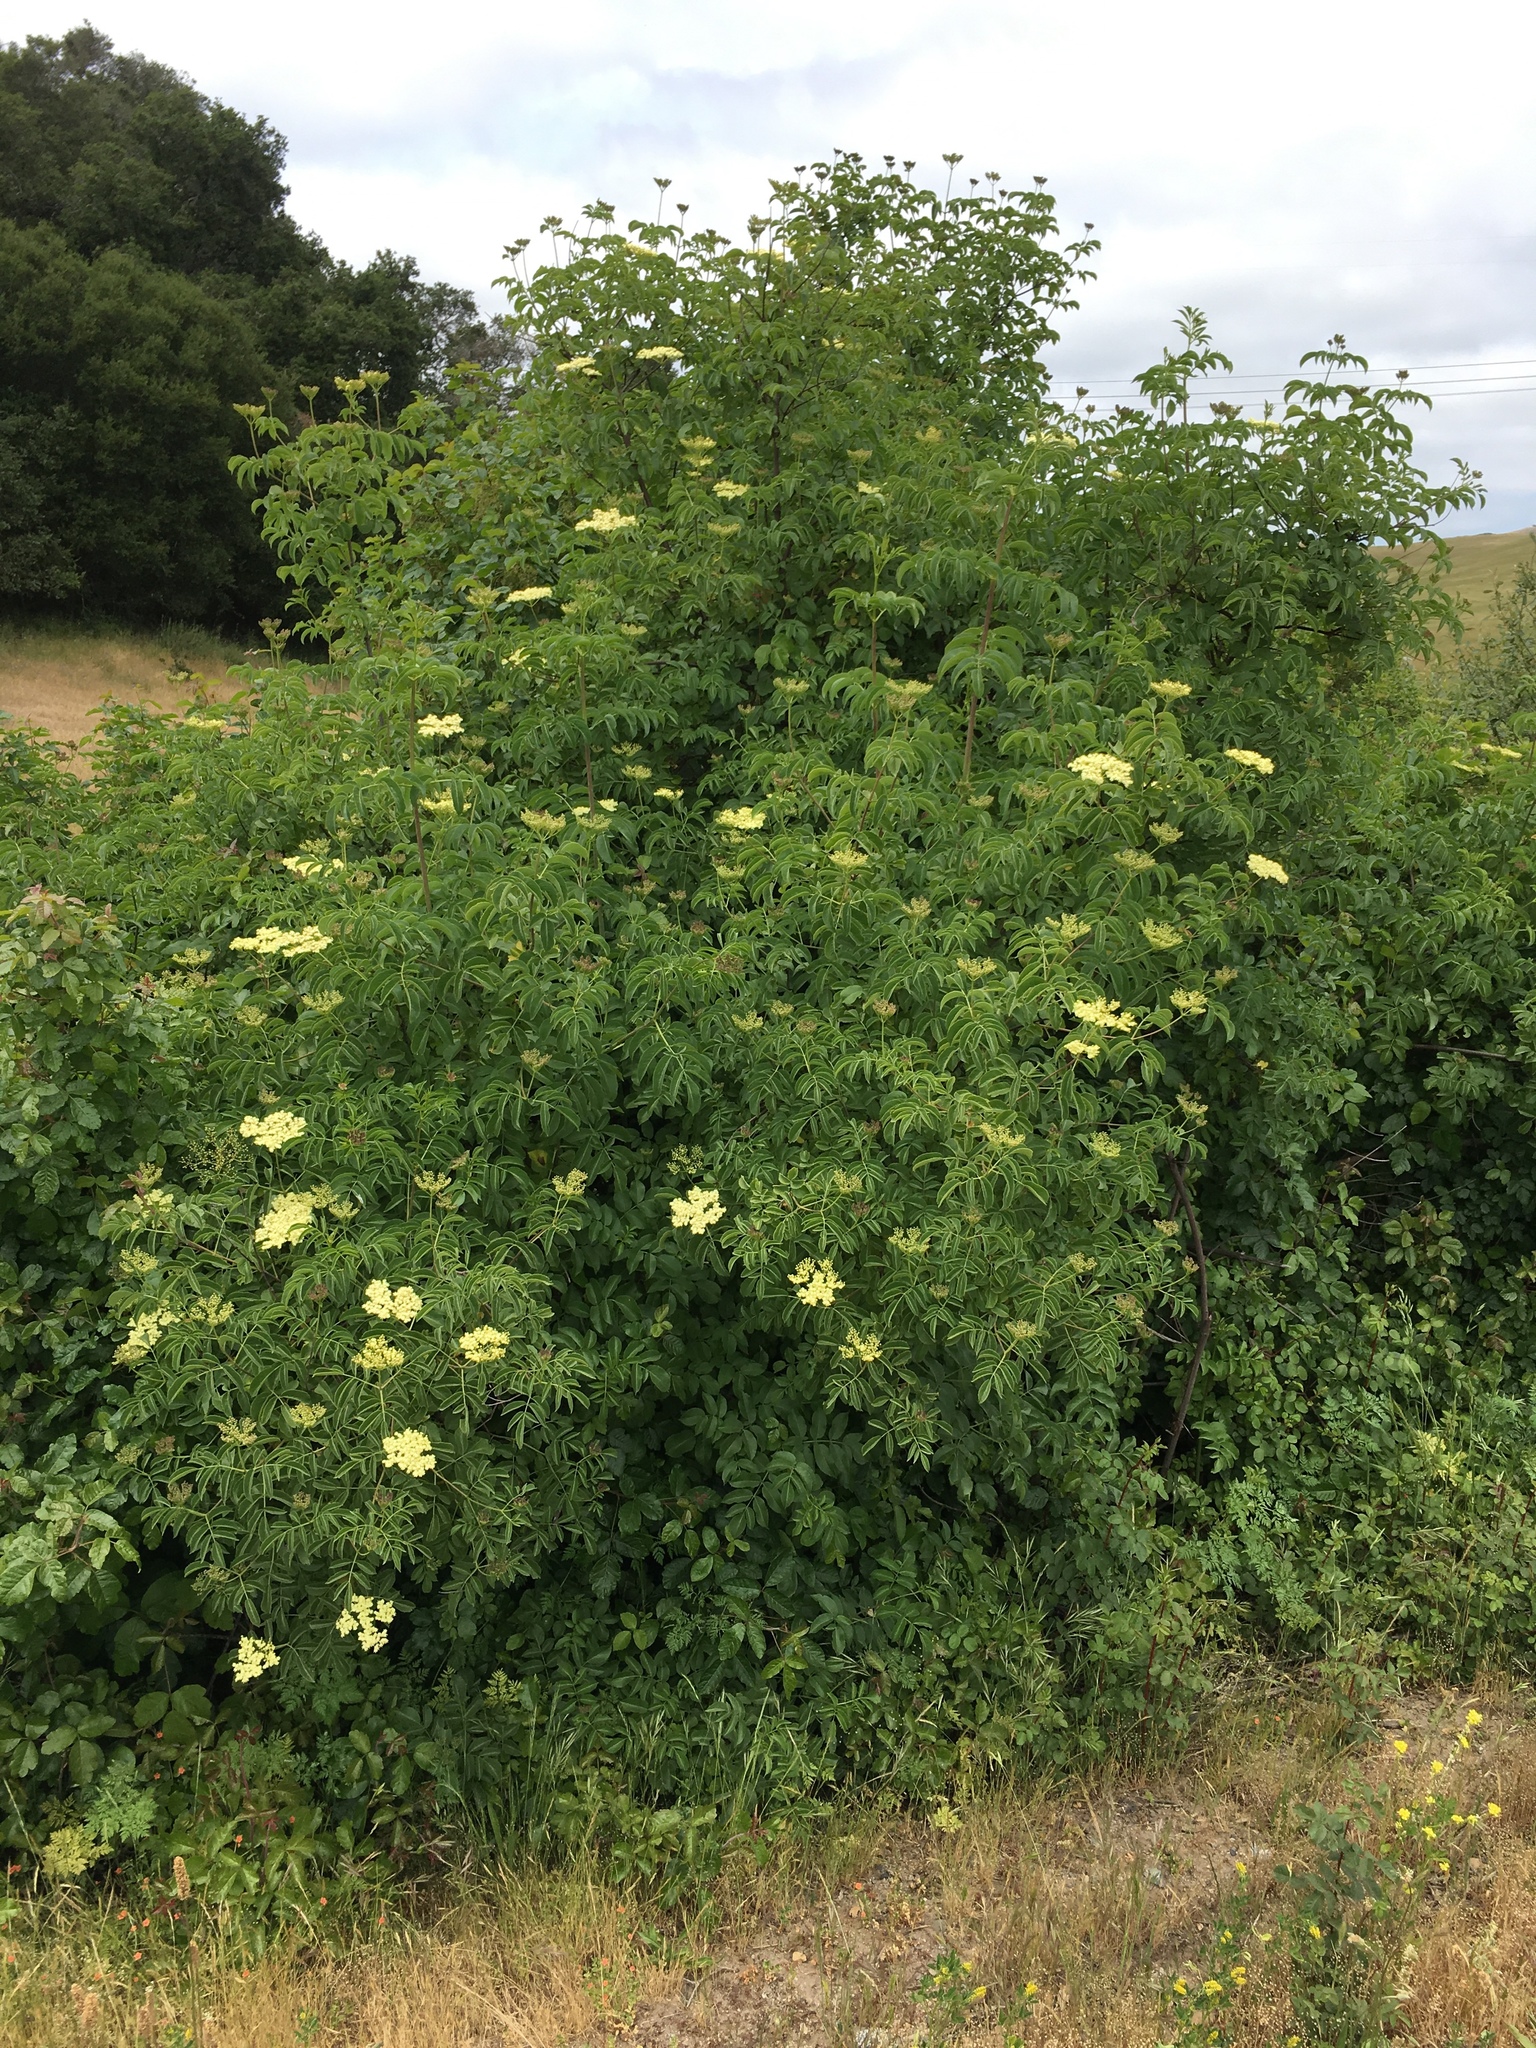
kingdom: Plantae
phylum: Tracheophyta
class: Magnoliopsida
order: Dipsacales
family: Viburnaceae
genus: Sambucus
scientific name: Sambucus cerulea
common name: Blue elder
